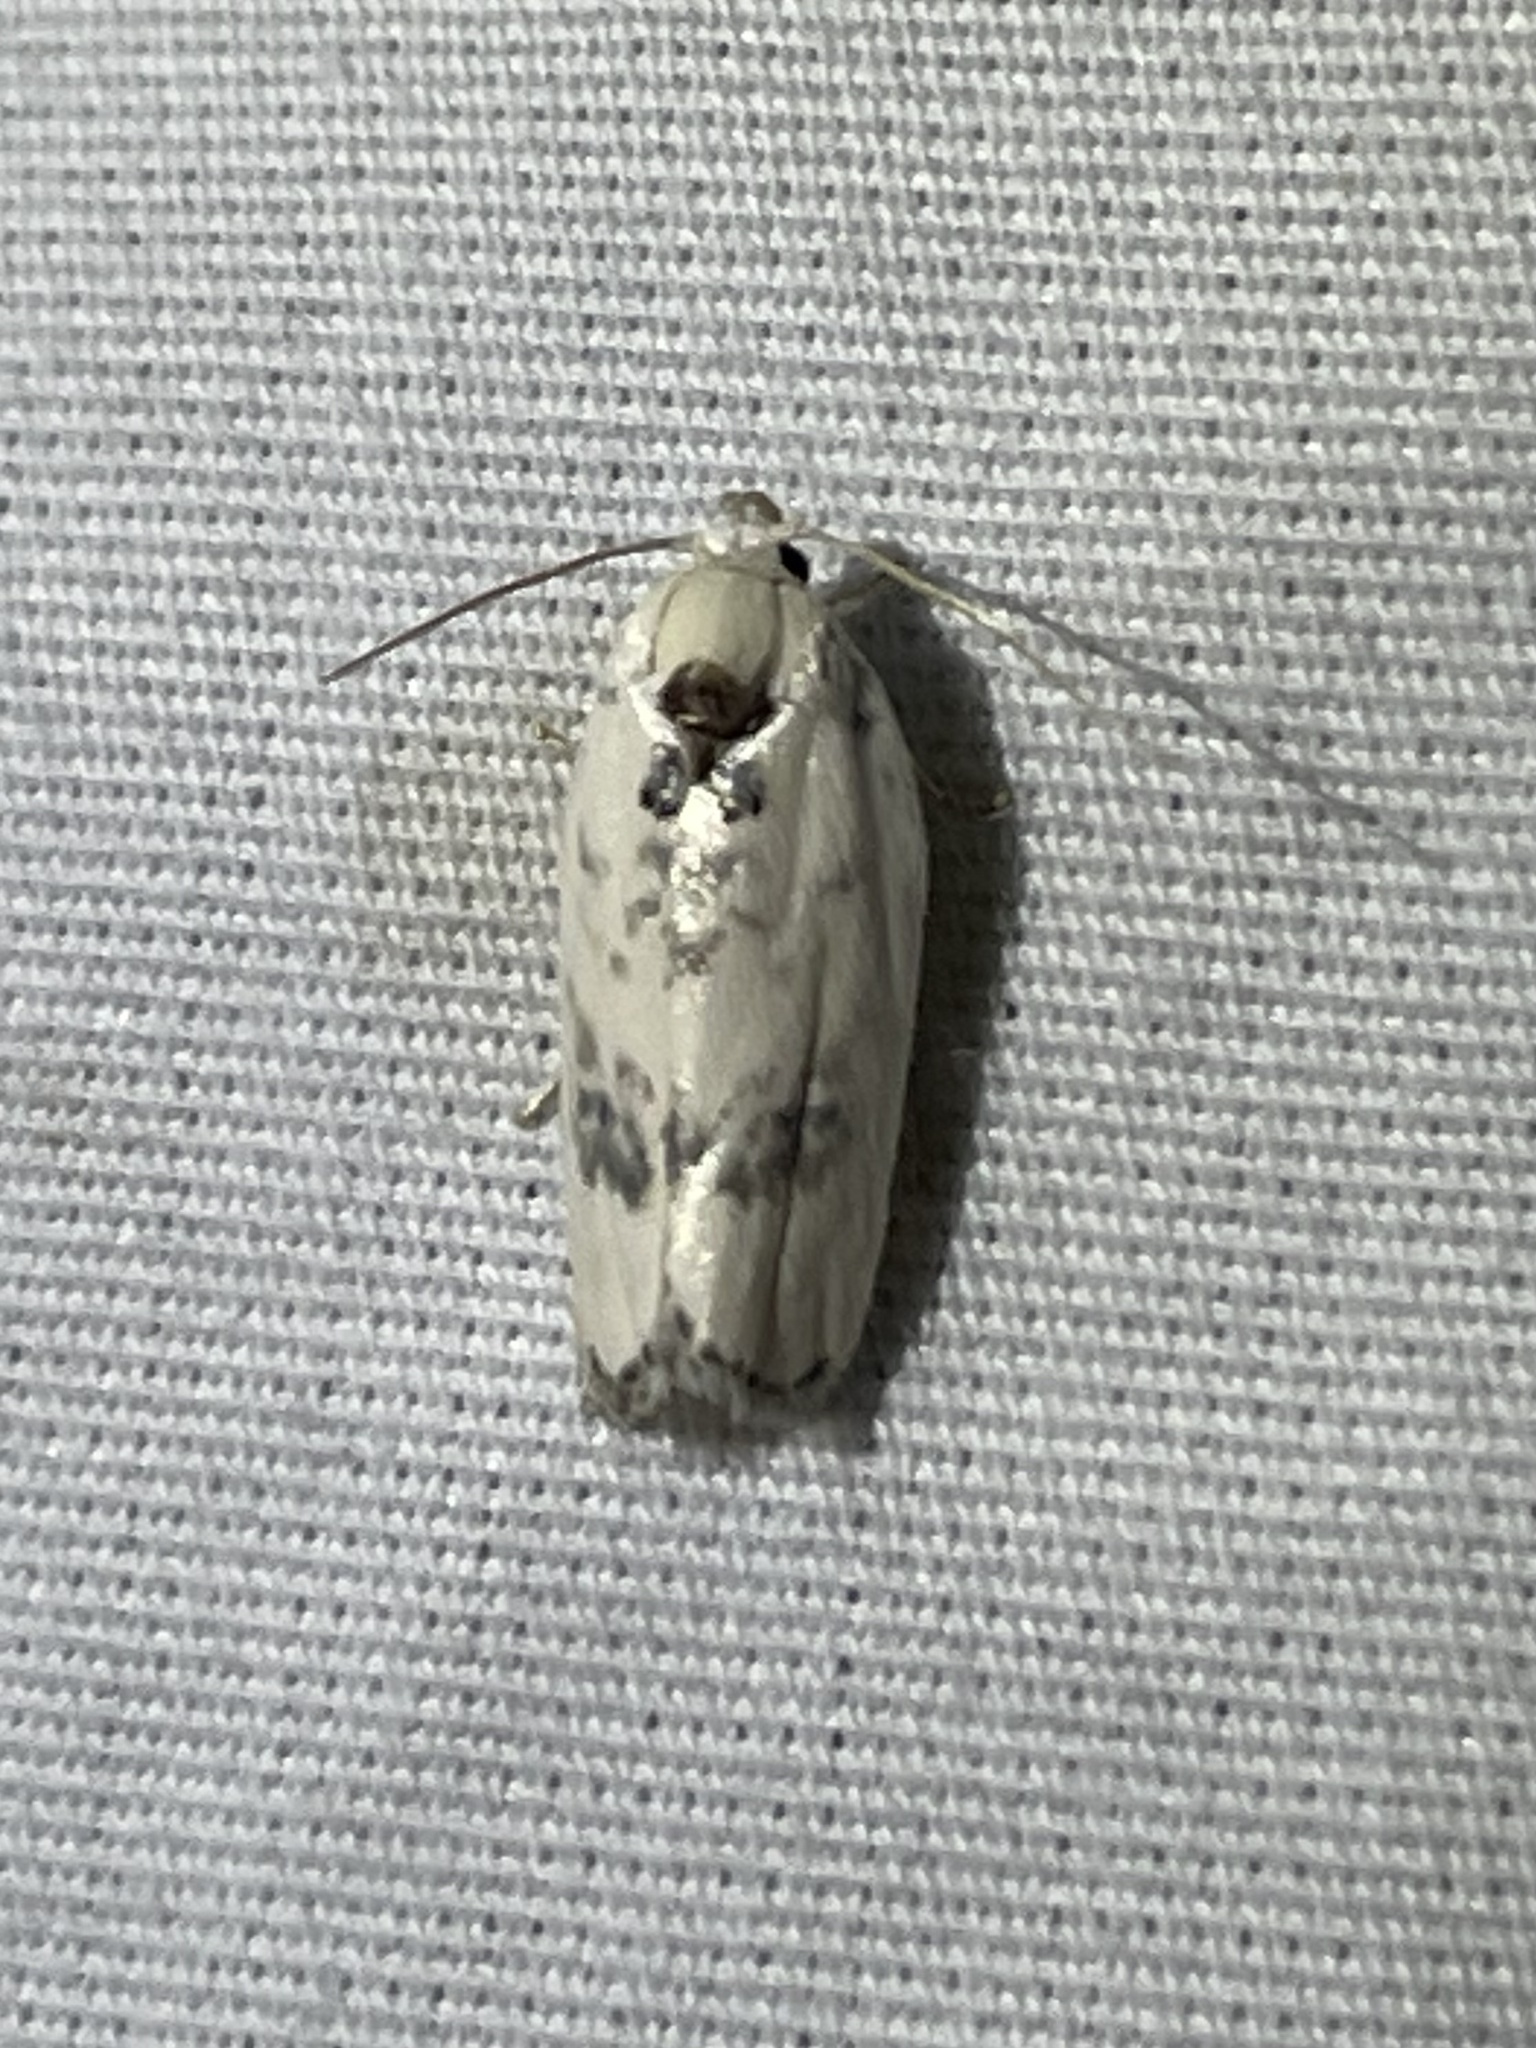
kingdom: Animalia
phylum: Arthropoda
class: Insecta
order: Lepidoptera
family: Depressariidae
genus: Antaeotricha
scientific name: Antaeotricha leucillana
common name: Pale gray bird-dropping moth
